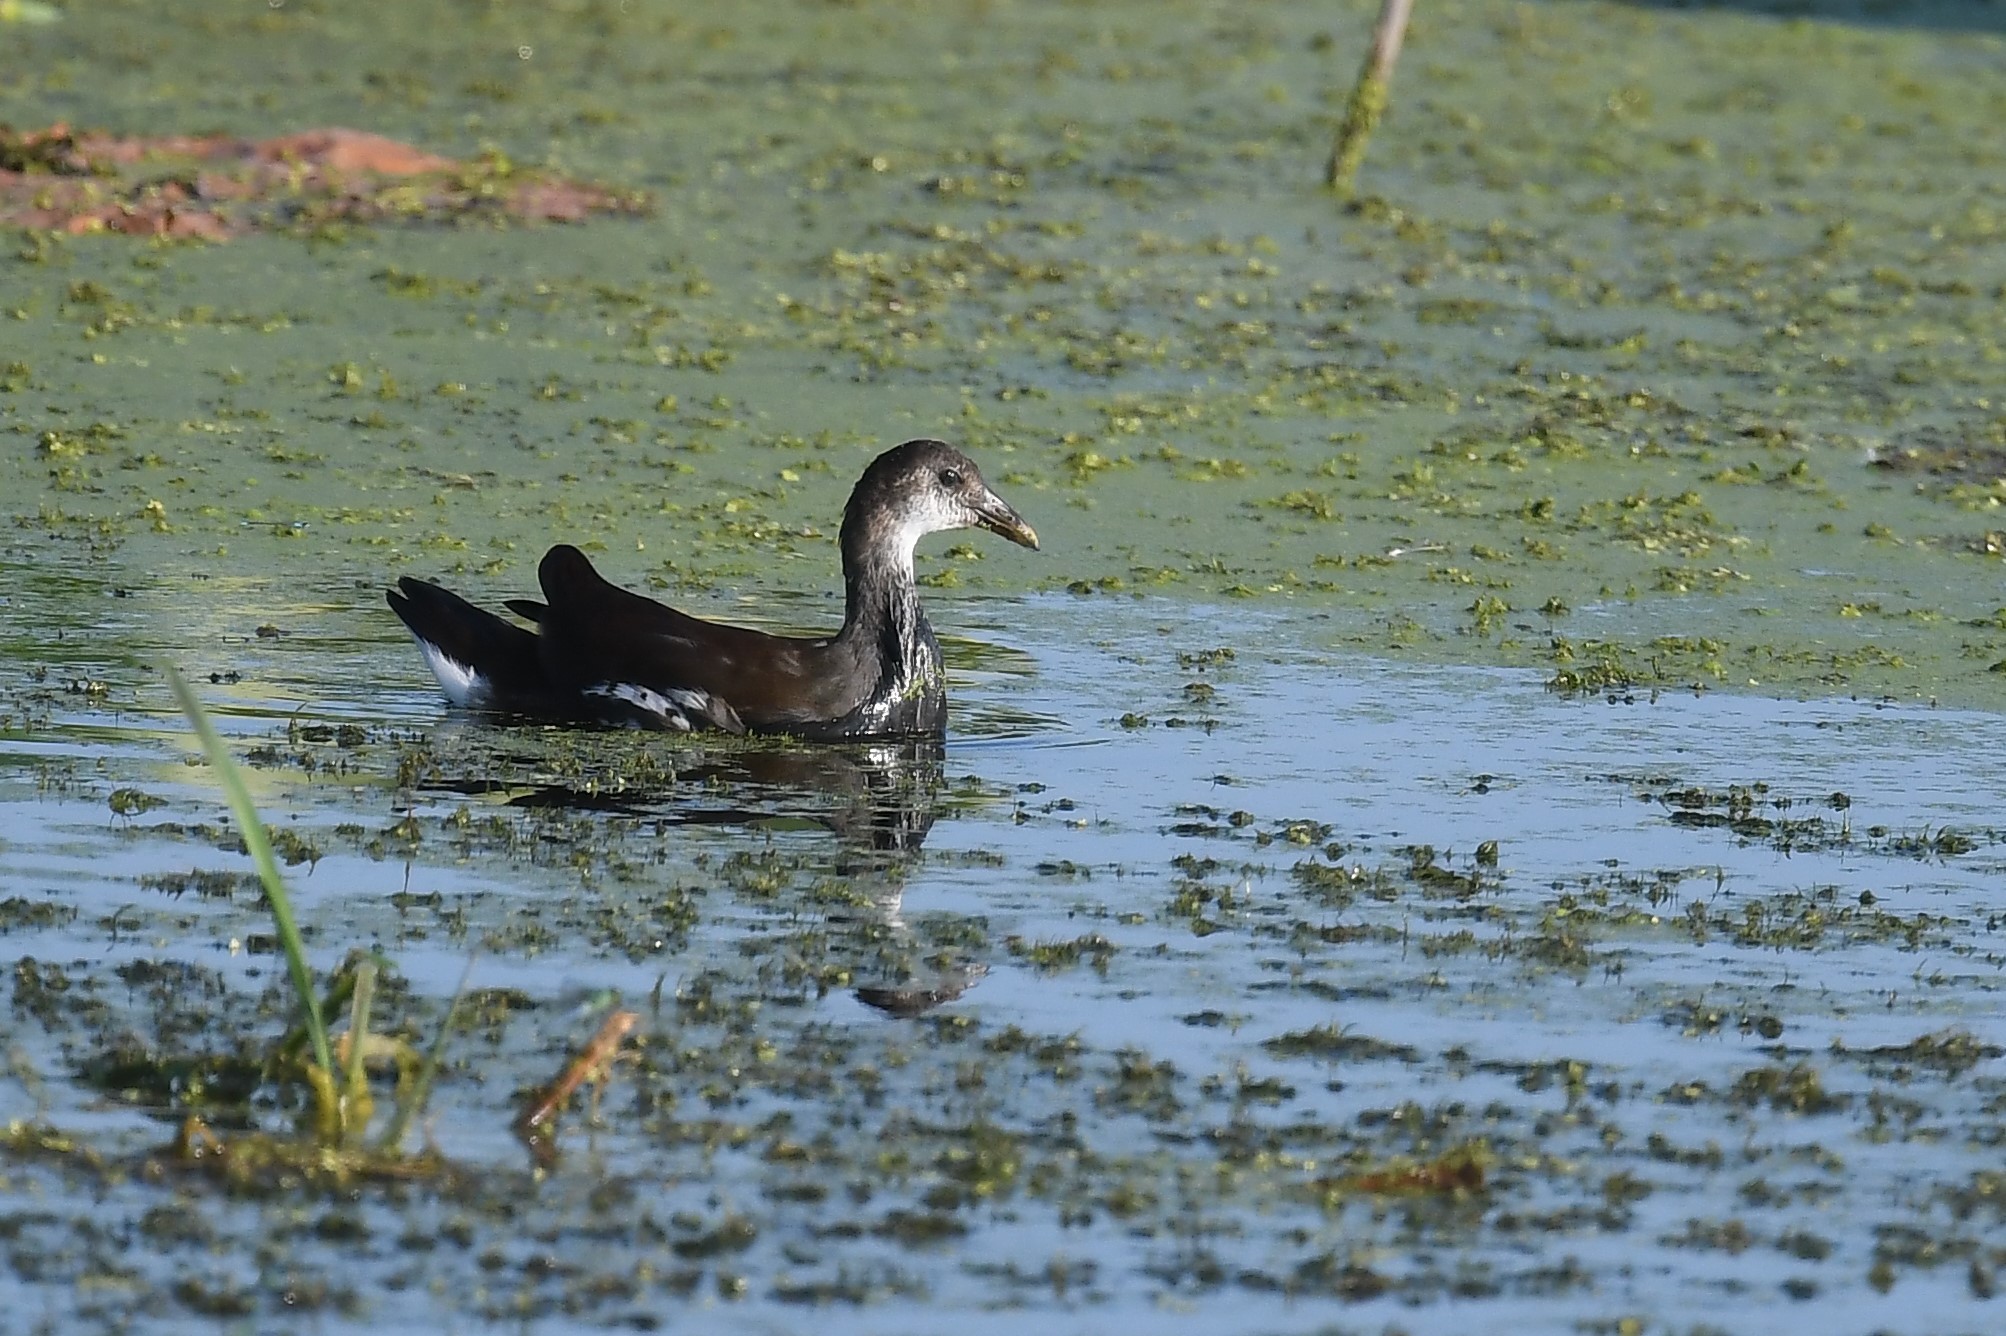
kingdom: Animalia
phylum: Chordata
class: Aves
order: Gruiformes
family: Rallidae
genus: Gallinula
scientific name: Gallinula chloropus
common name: Common moorhen
